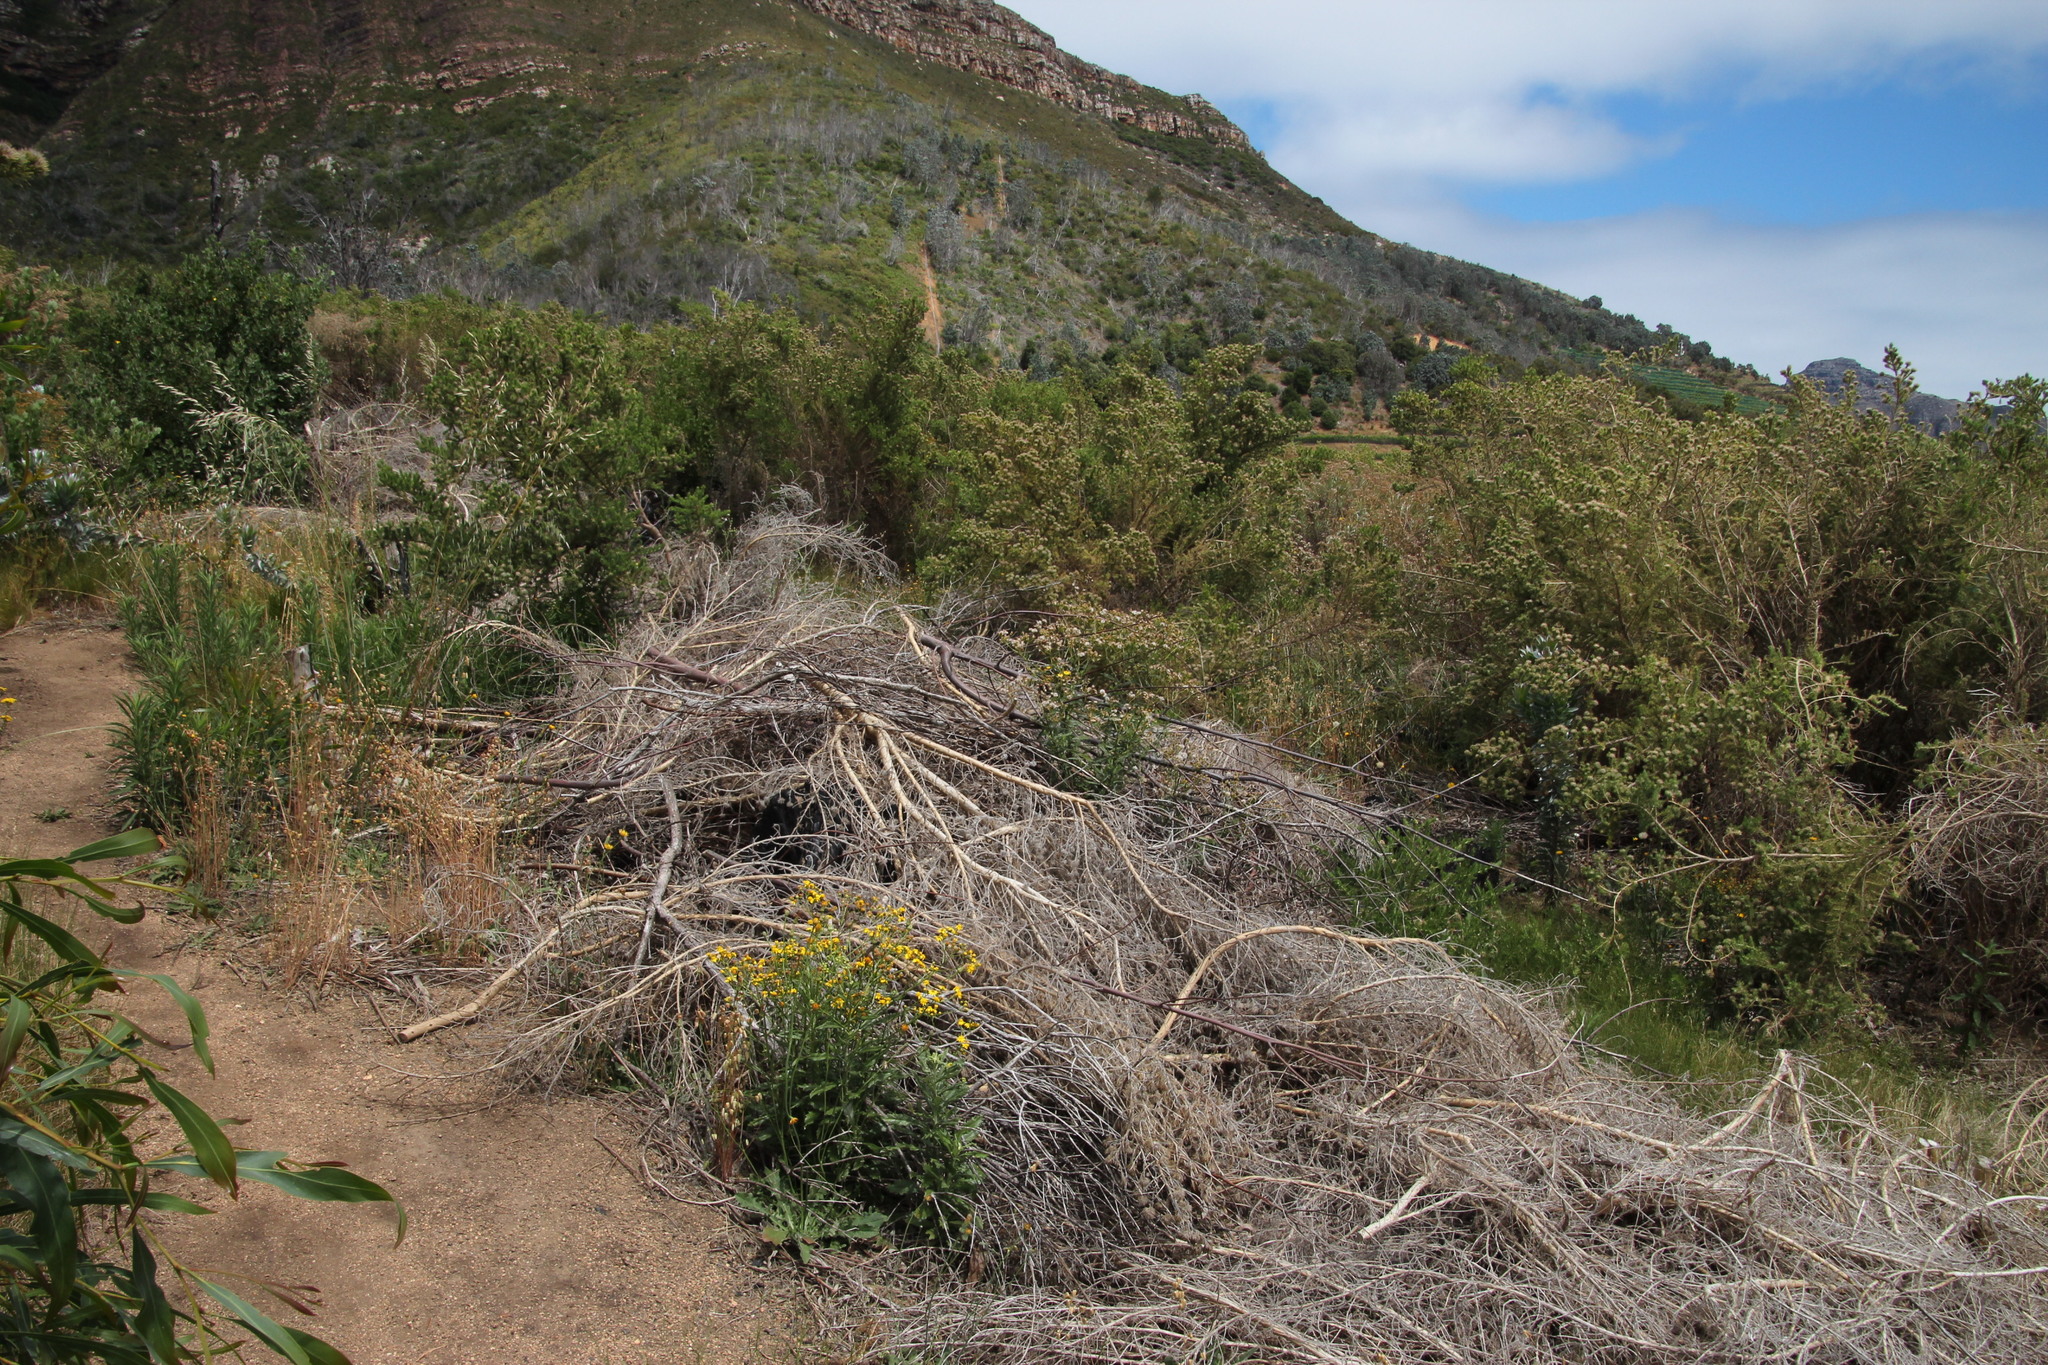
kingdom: Plantae
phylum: Tracheophyta
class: Magnoliopsida
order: Fabales
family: Fabaceae
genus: Aspalathus
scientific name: Aspalathus chenopoda
